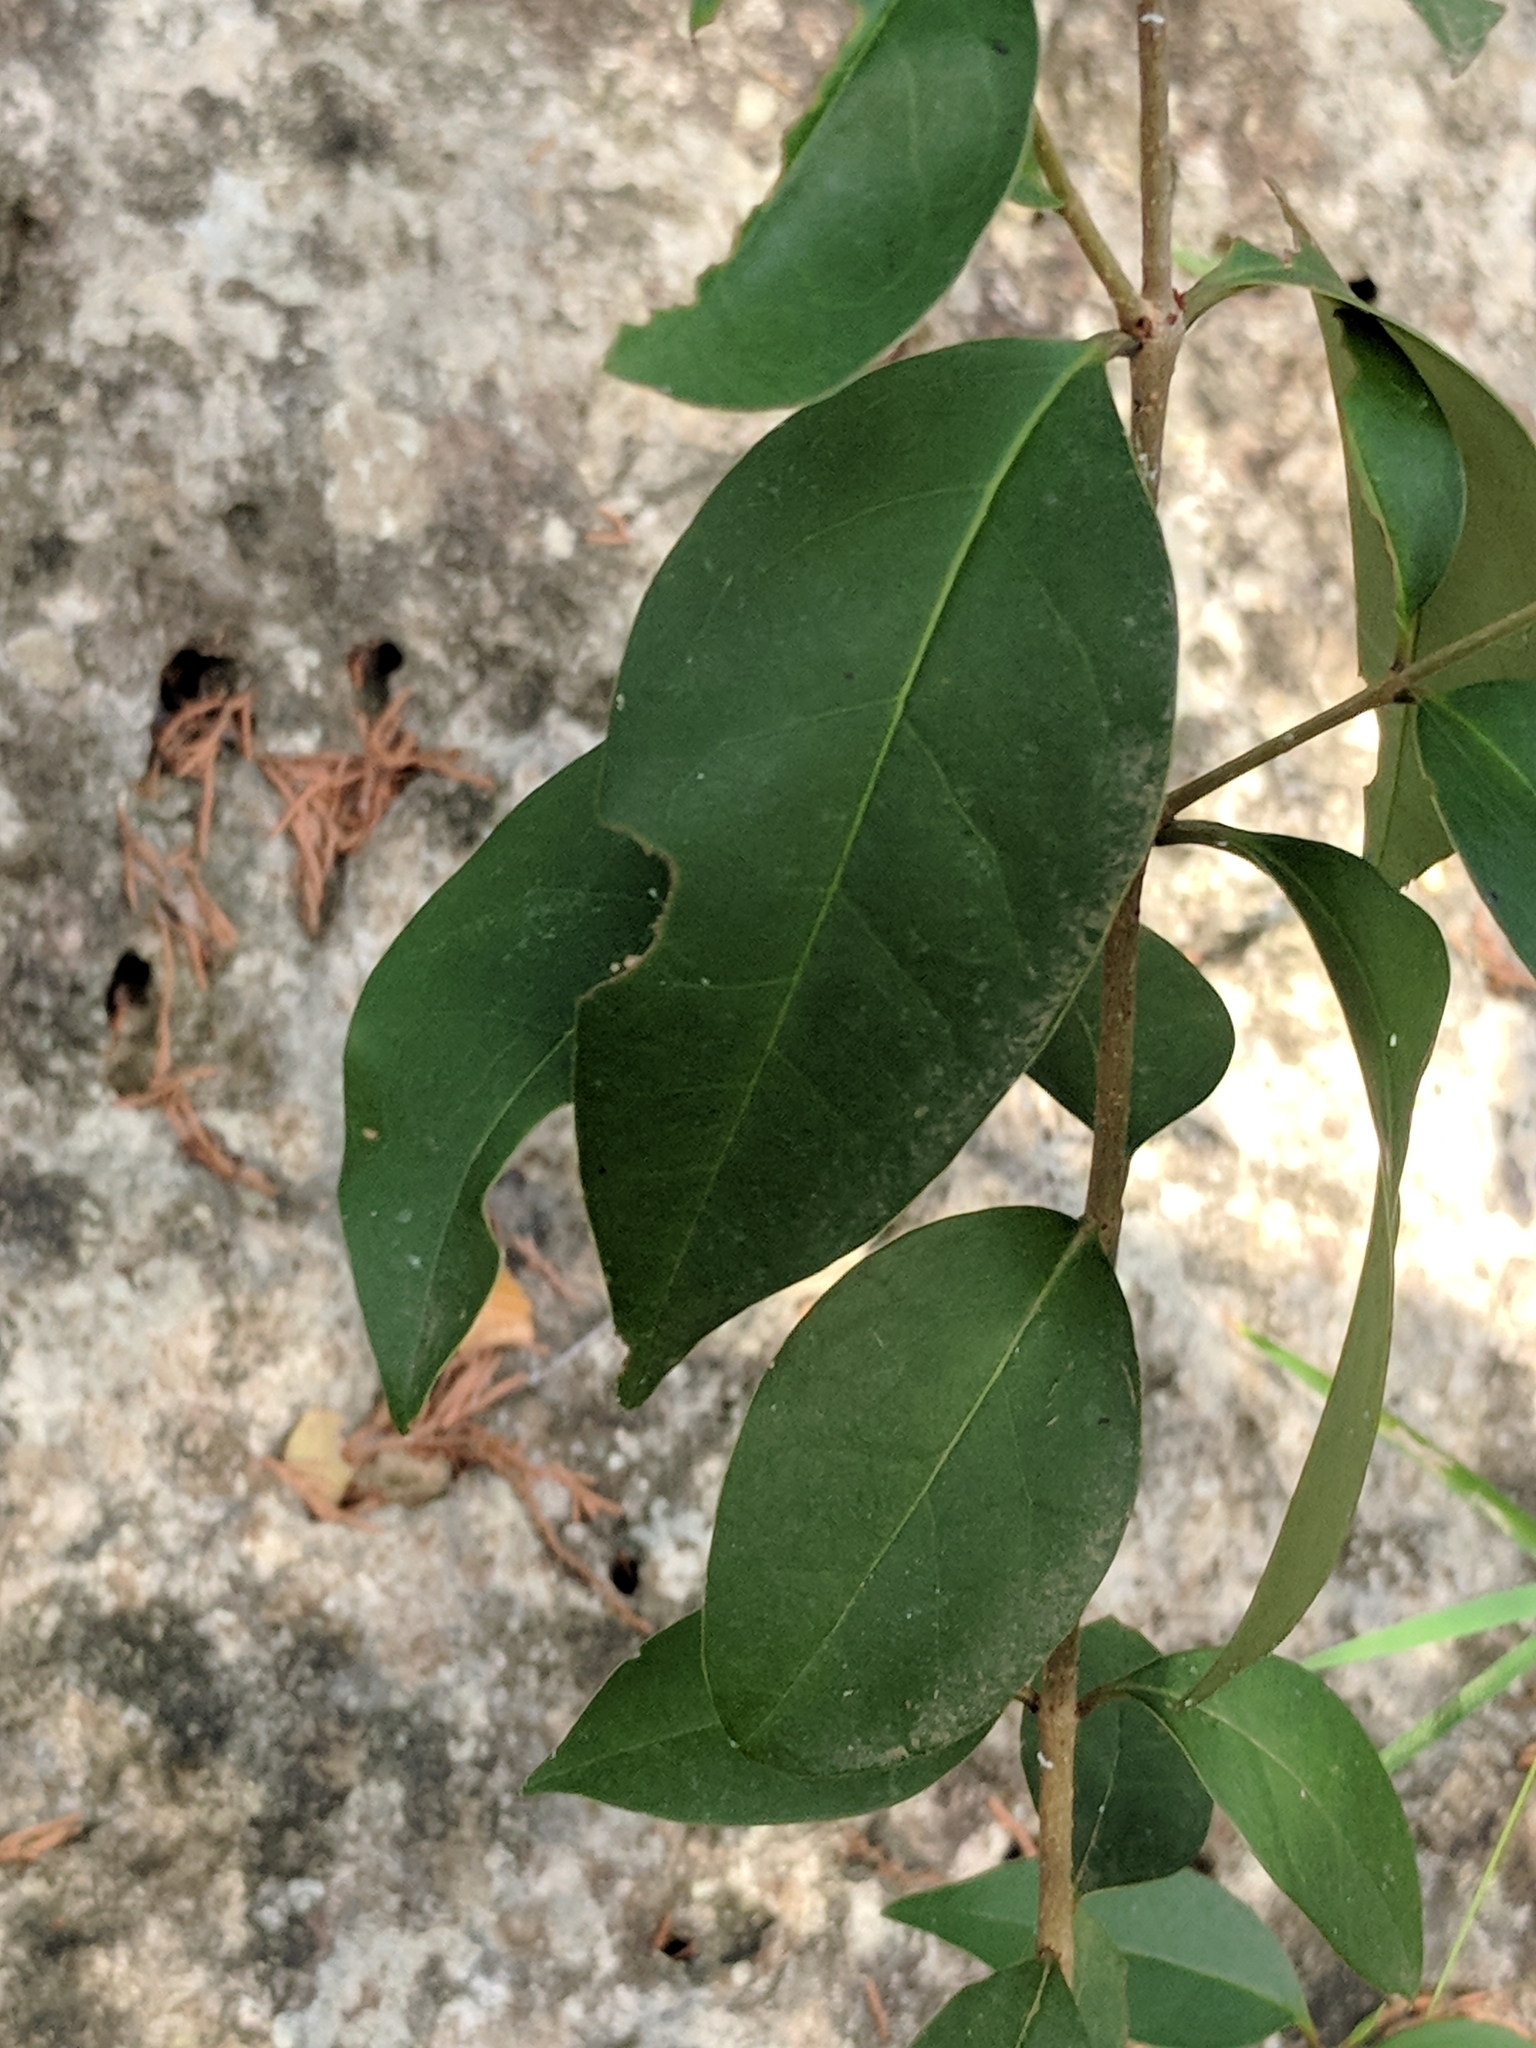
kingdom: Plantae
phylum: Tracheophyta
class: Magnoliopsida
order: Lamiales
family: Oleaceae
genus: Ligustrum
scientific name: Ligustrum lucidum
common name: Glossy privet
